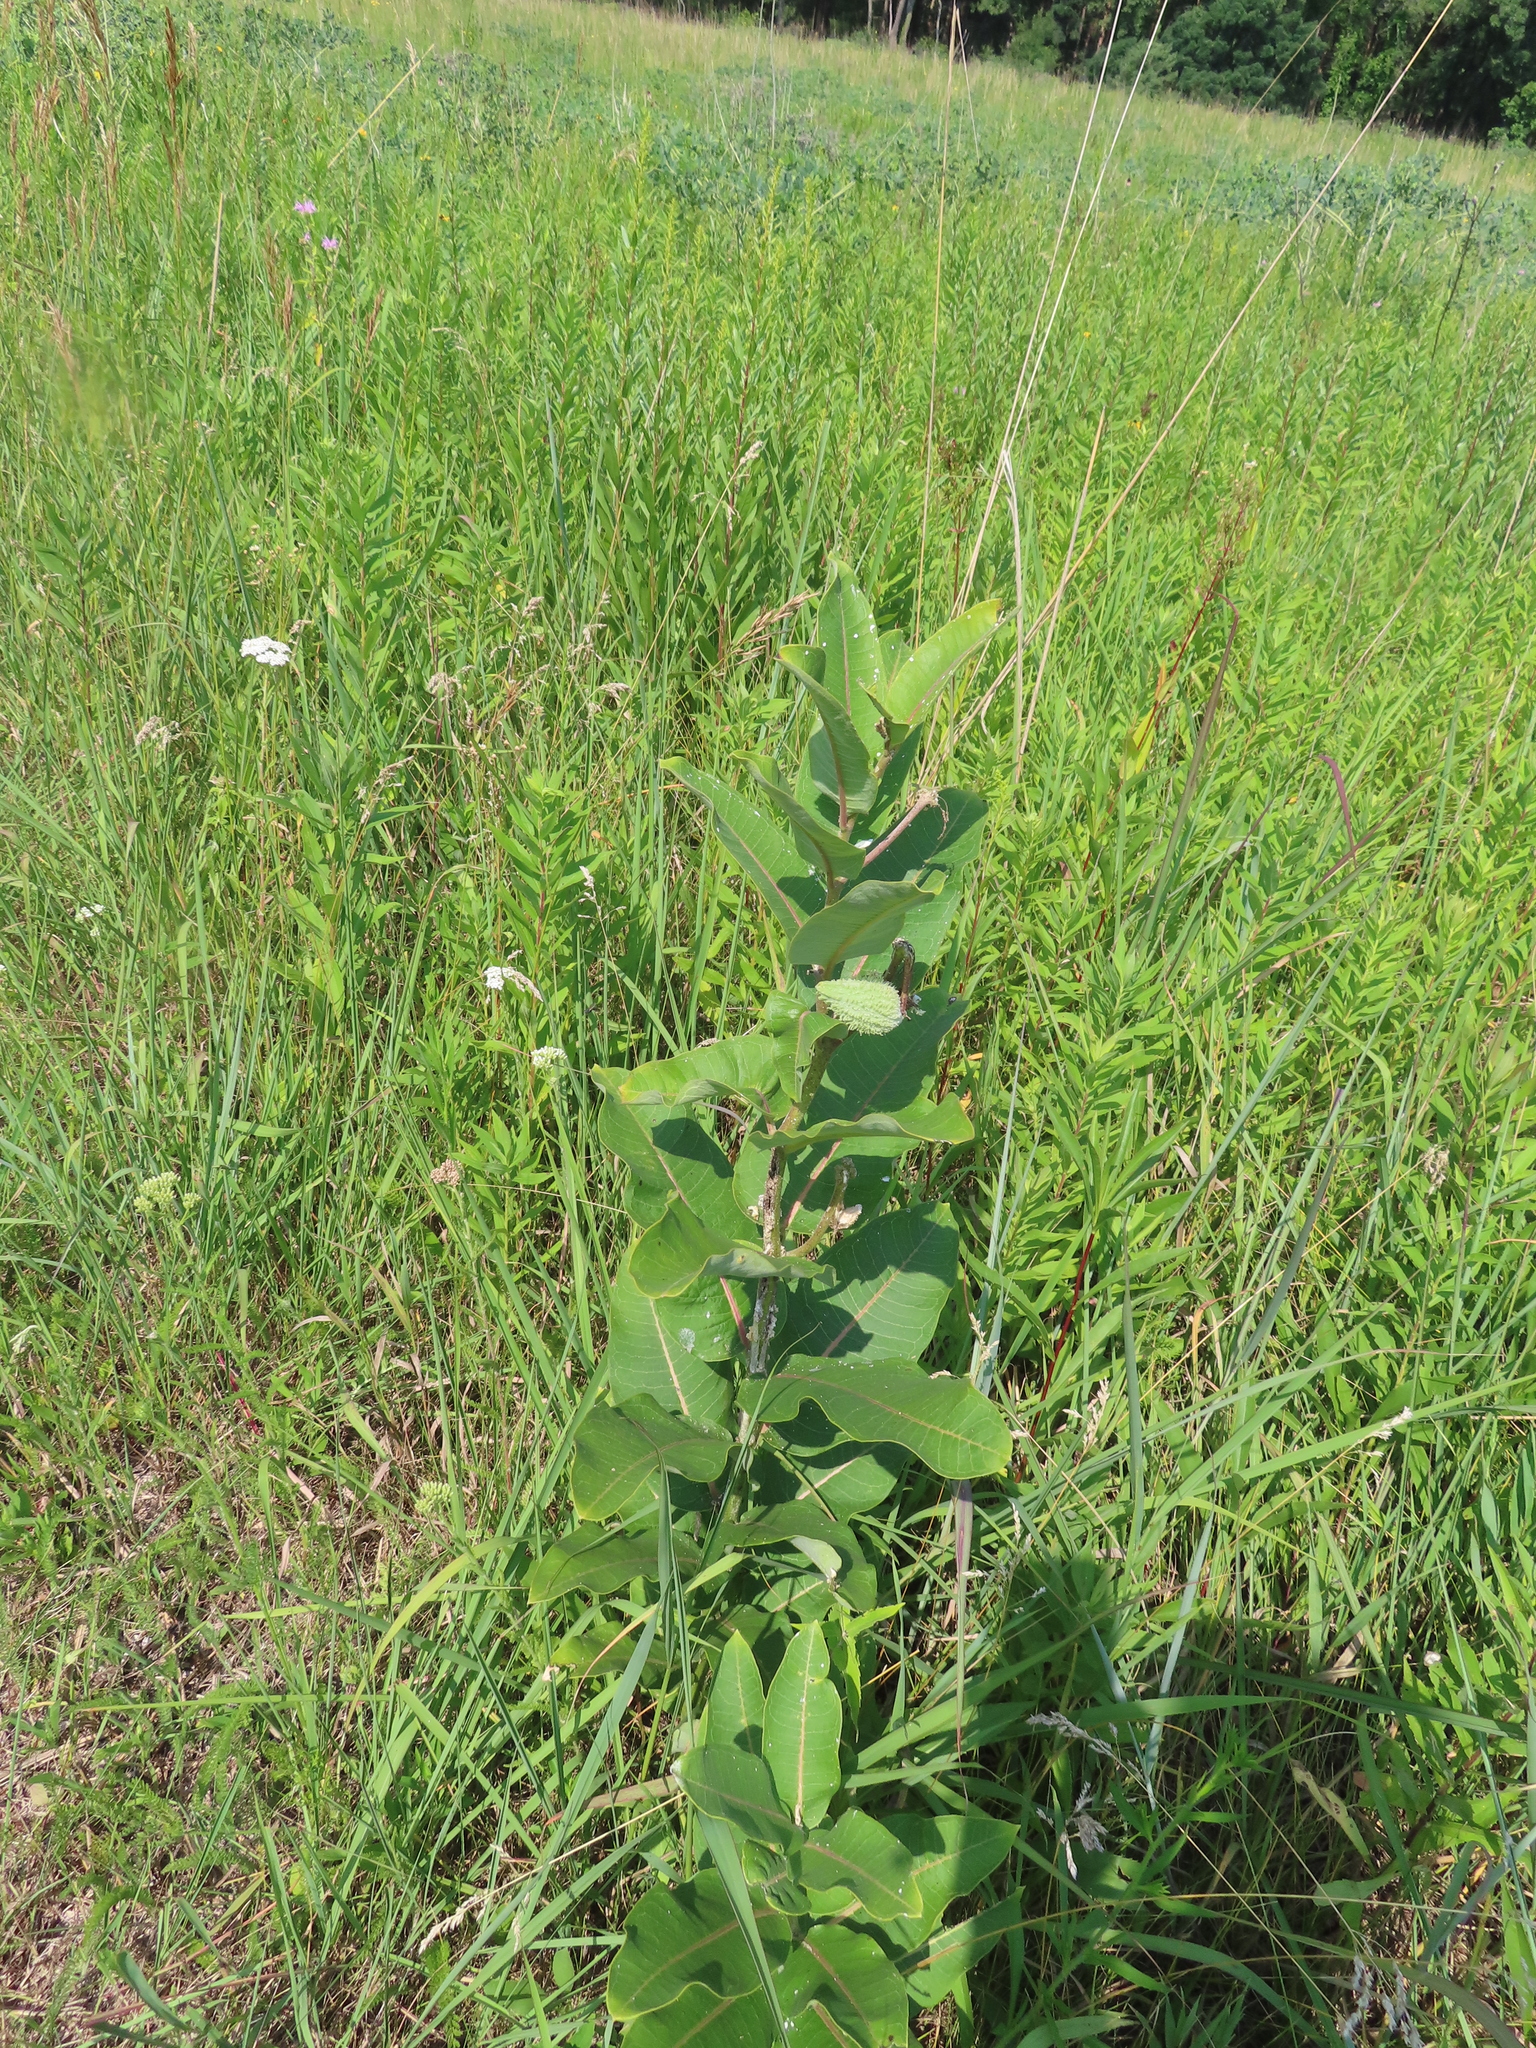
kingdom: Plantae
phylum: Tracheophyta
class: Magnoliopsida
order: Gentianales
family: Apocynaceae
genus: Asclepias
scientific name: Asclepias syriaca
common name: Common milkweed
